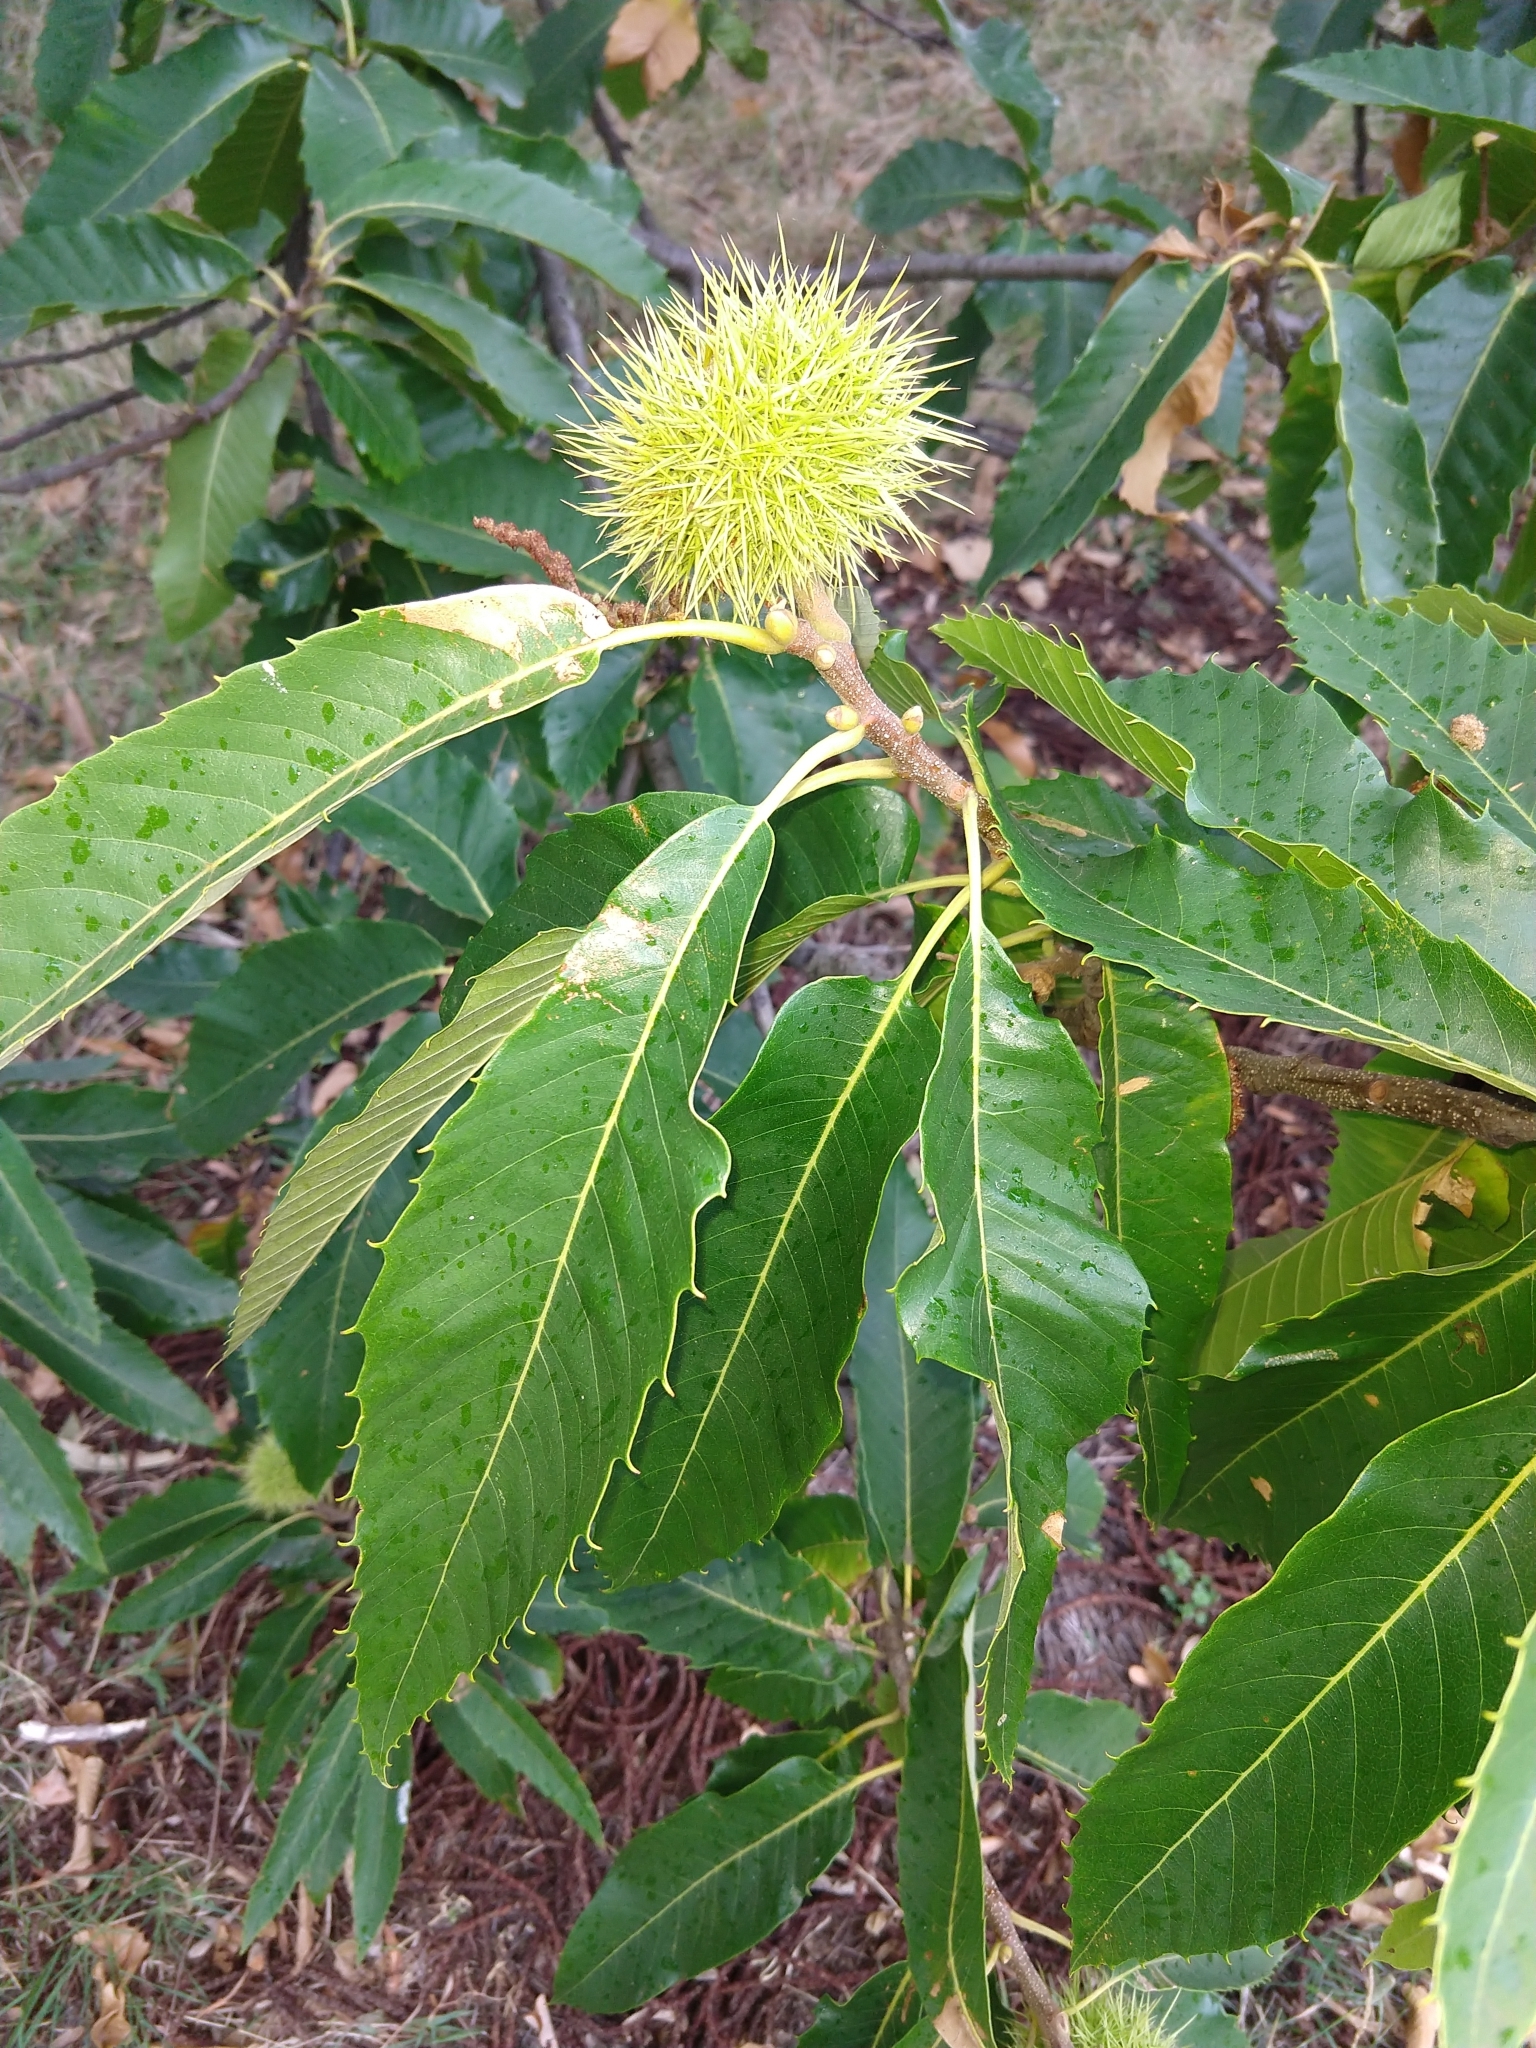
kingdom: Plantae
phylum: Tracheophyta
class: Magnoliopsida
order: Fagales
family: Fagaceae
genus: Castanea
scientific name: Castanea sativa
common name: Sweet chestnut
